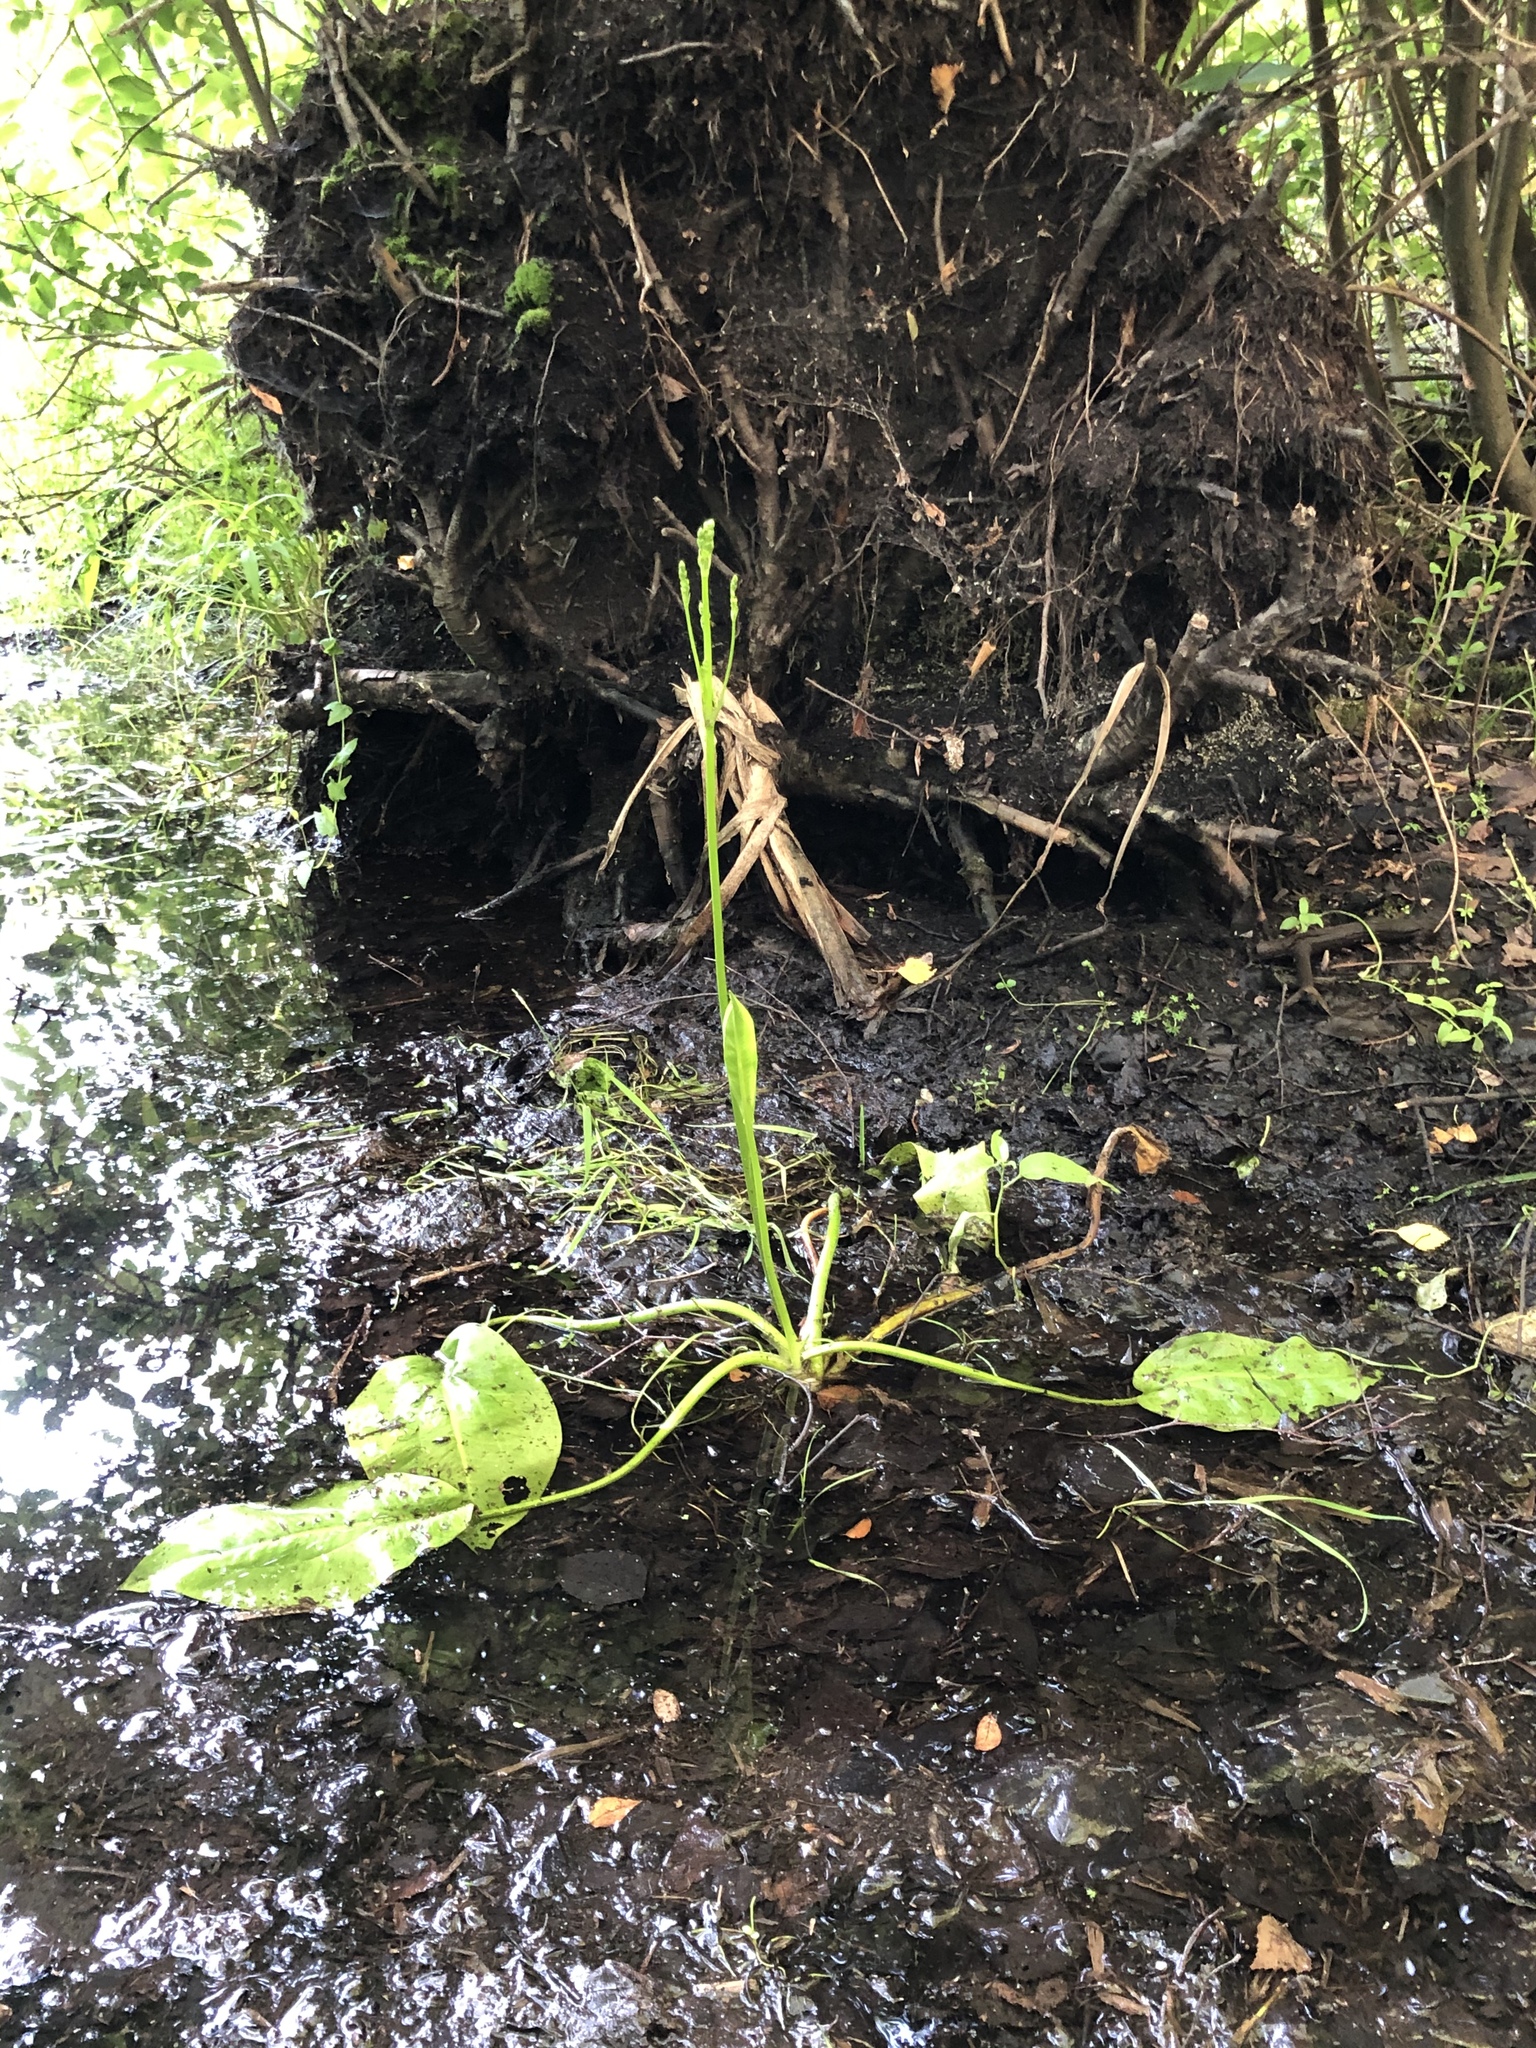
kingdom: Plantae
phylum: Tracheophyta
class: Liliopsida
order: Alismatales
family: Alismataceae
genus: Alisma
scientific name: Alisma plantago-aquatica
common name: Water-plantain
